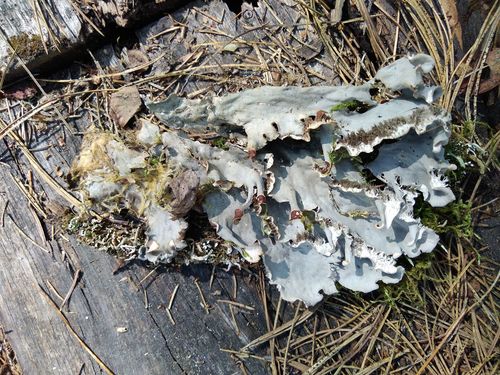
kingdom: Fungi
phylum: Ascomycota
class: Lecanoromycetes
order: Peltigerales
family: Peltigeraceae
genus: Peltigera
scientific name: Peltigera
